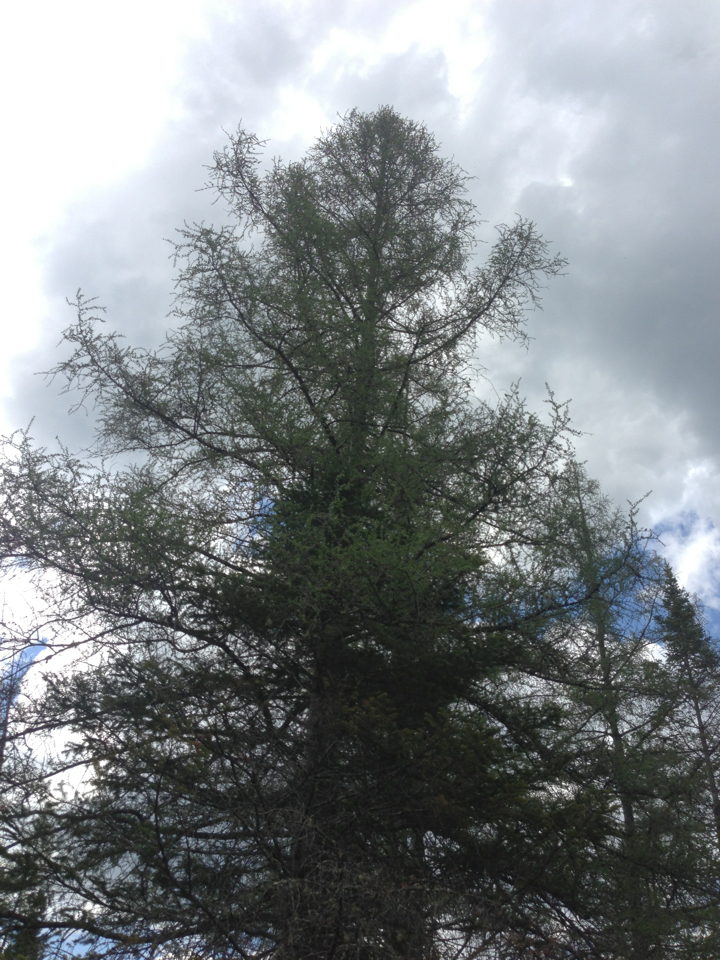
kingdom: Plantae
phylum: Tracheophyta
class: Pinopsida
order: Pinales
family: Pinaceae
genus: Larix
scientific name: Larix laricina
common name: American larch
